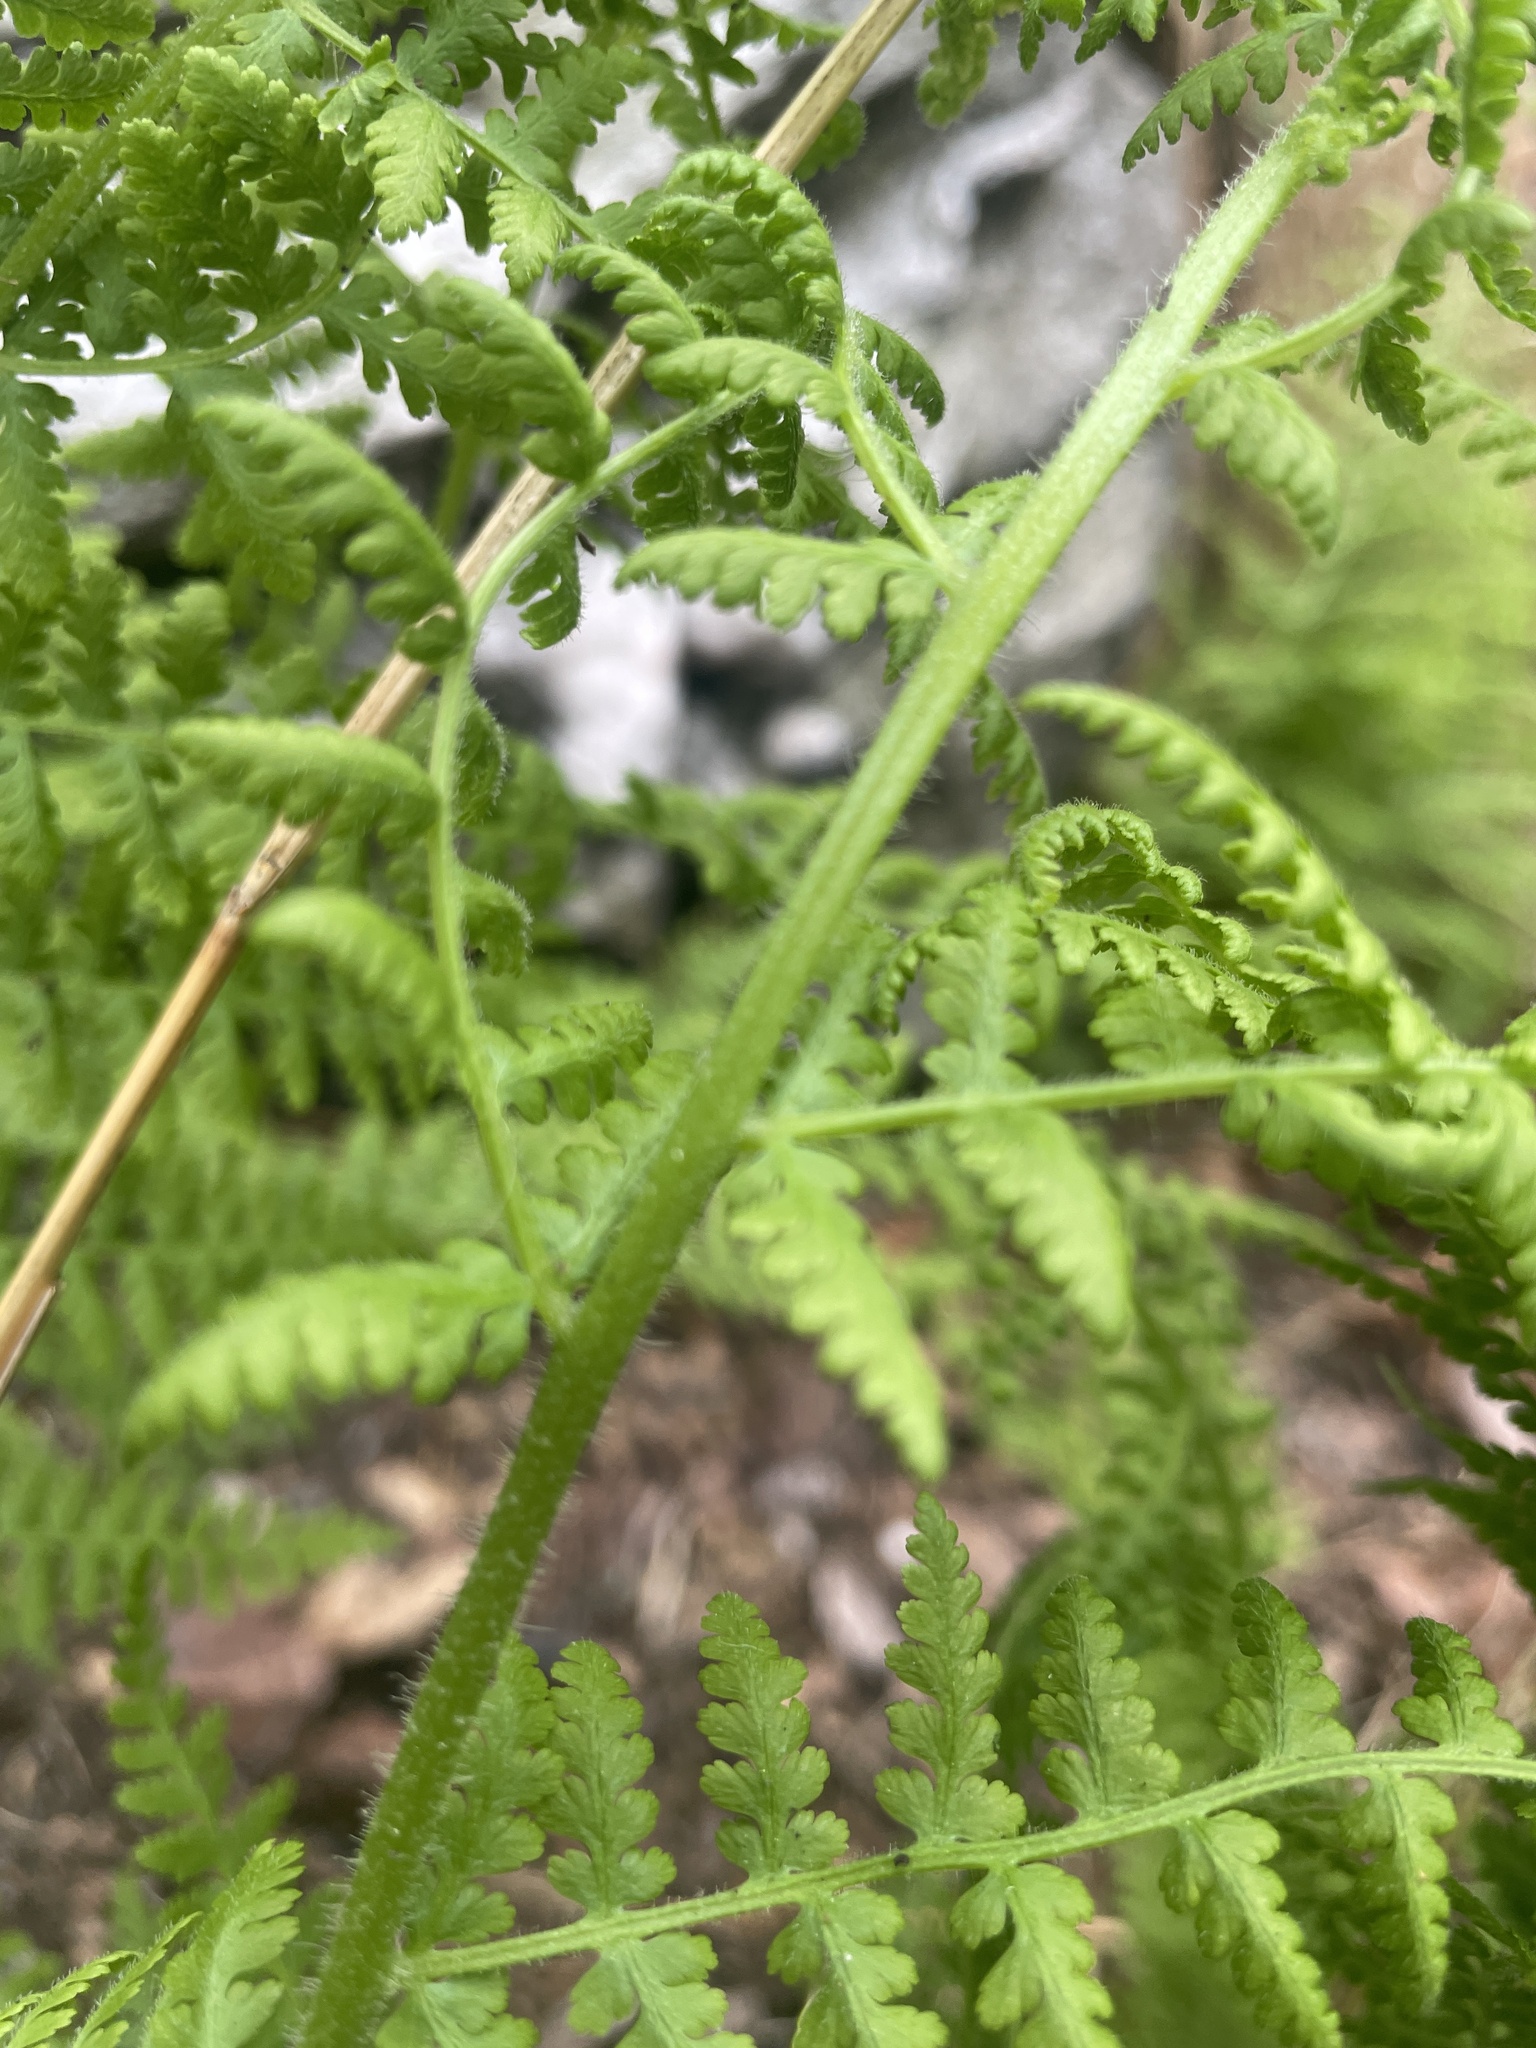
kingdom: Plantae
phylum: Tracheophyta
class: Polypodiopsida
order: Polypodiales
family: Dennstaedtiaceae
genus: Sitobolium
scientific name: Sitobolium punctilobum
